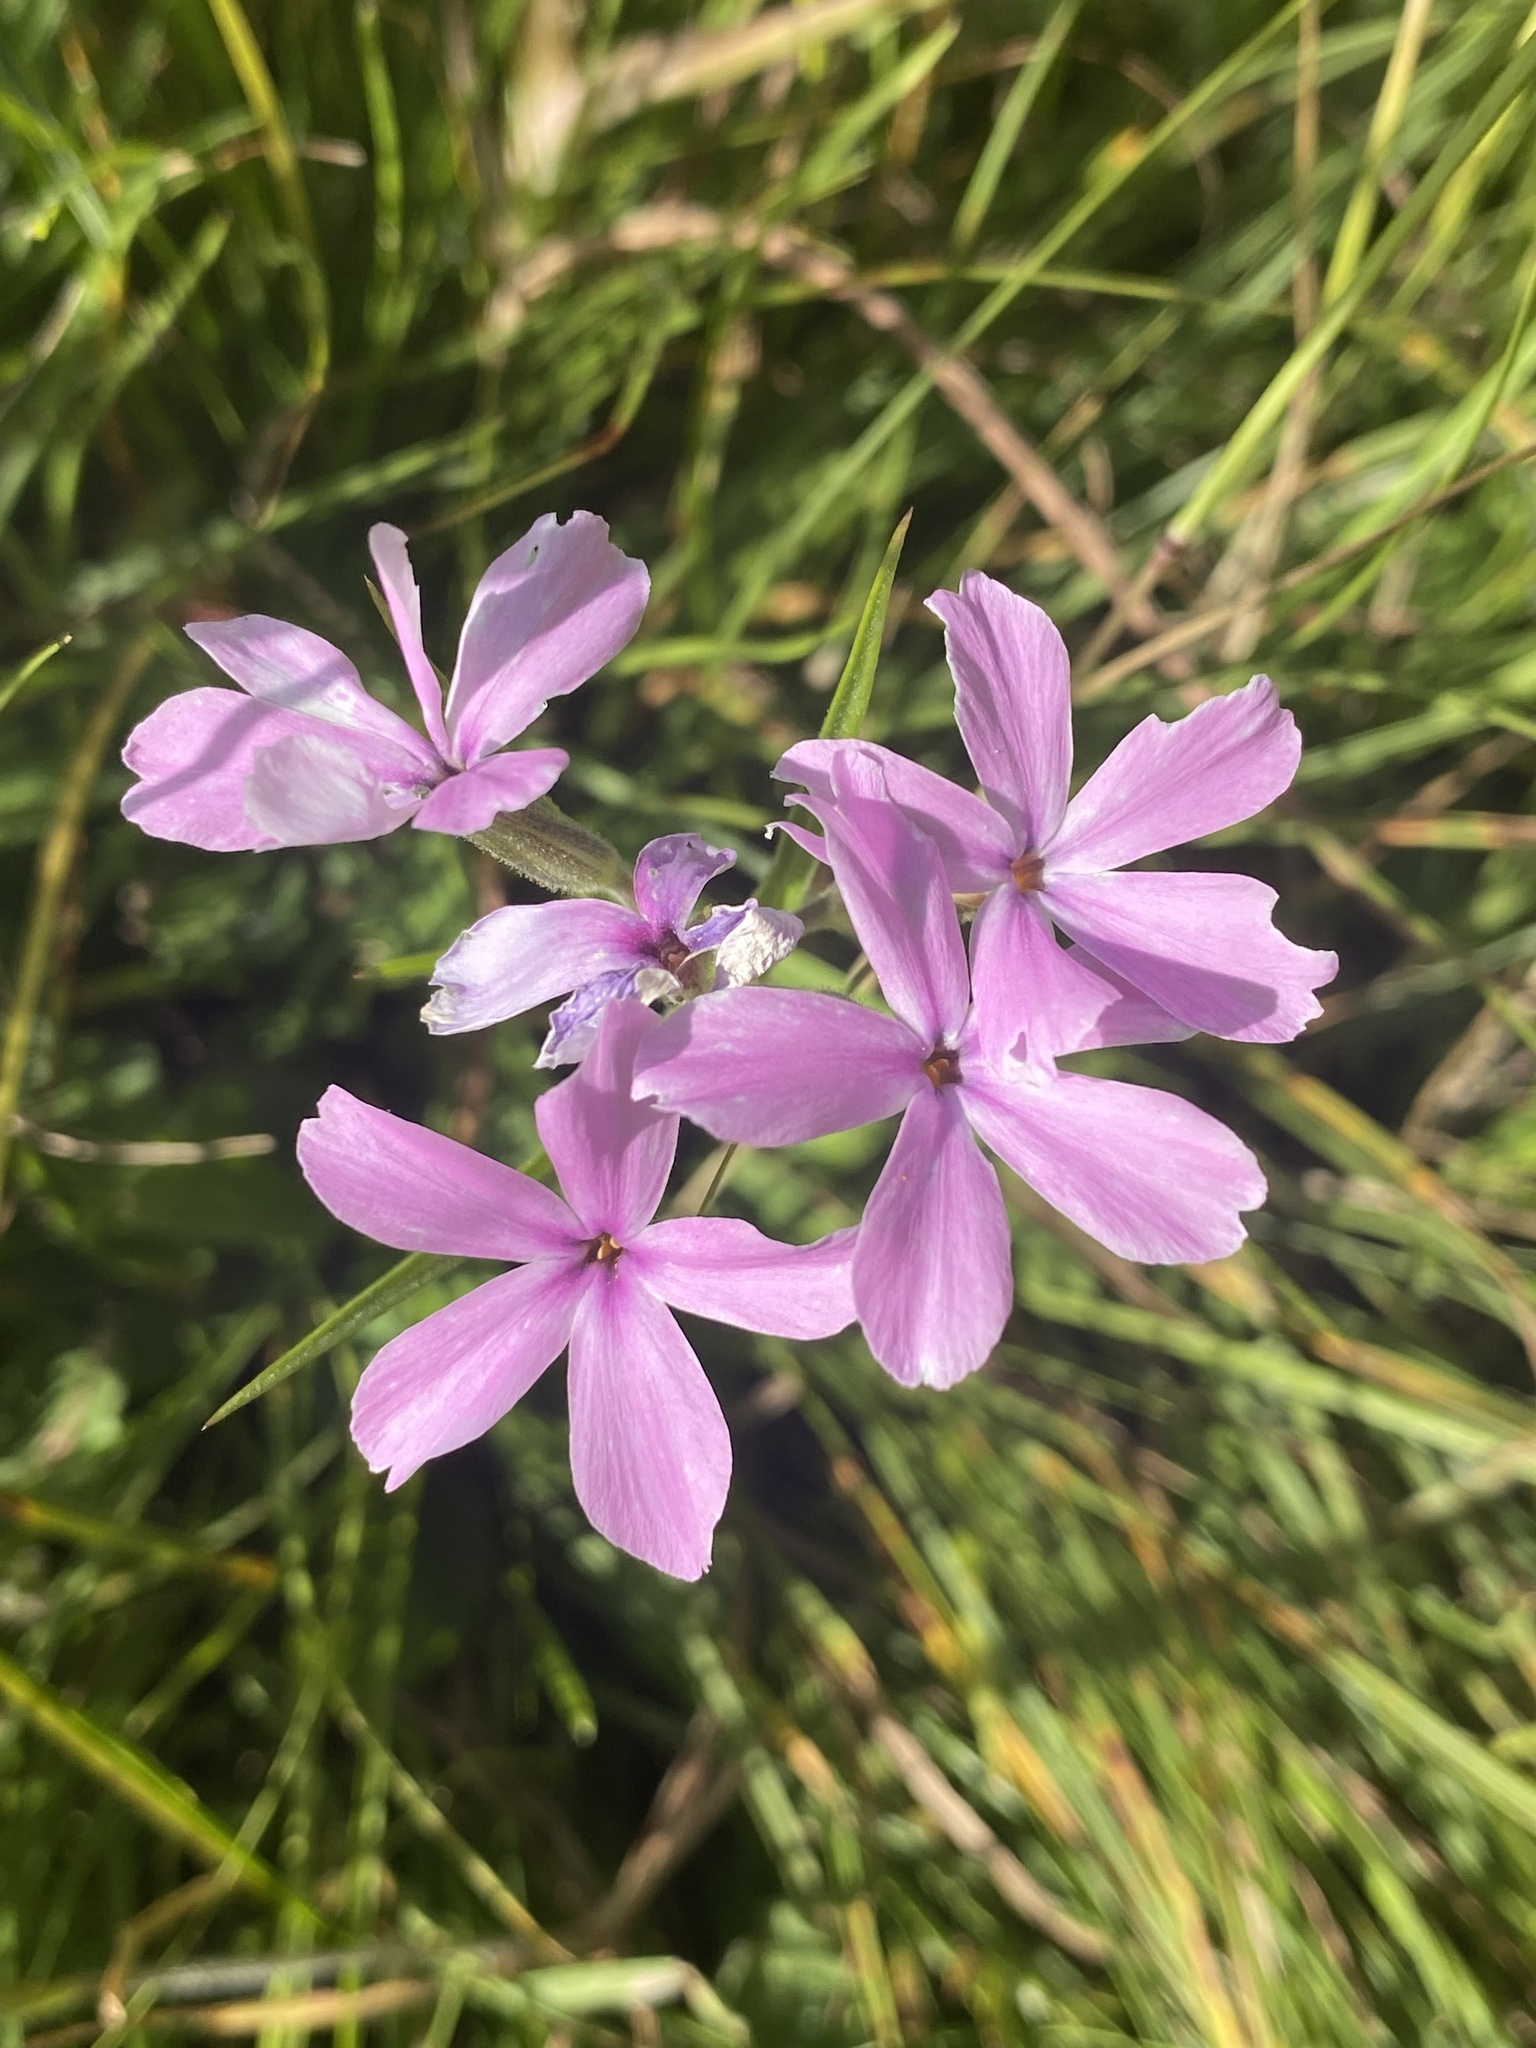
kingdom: Plantae
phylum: Tracheophyta
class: Magnoliopsida
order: Ericales
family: Polemoniaceae
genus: Phlox
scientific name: Phlox speciosa
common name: Bush phlox
